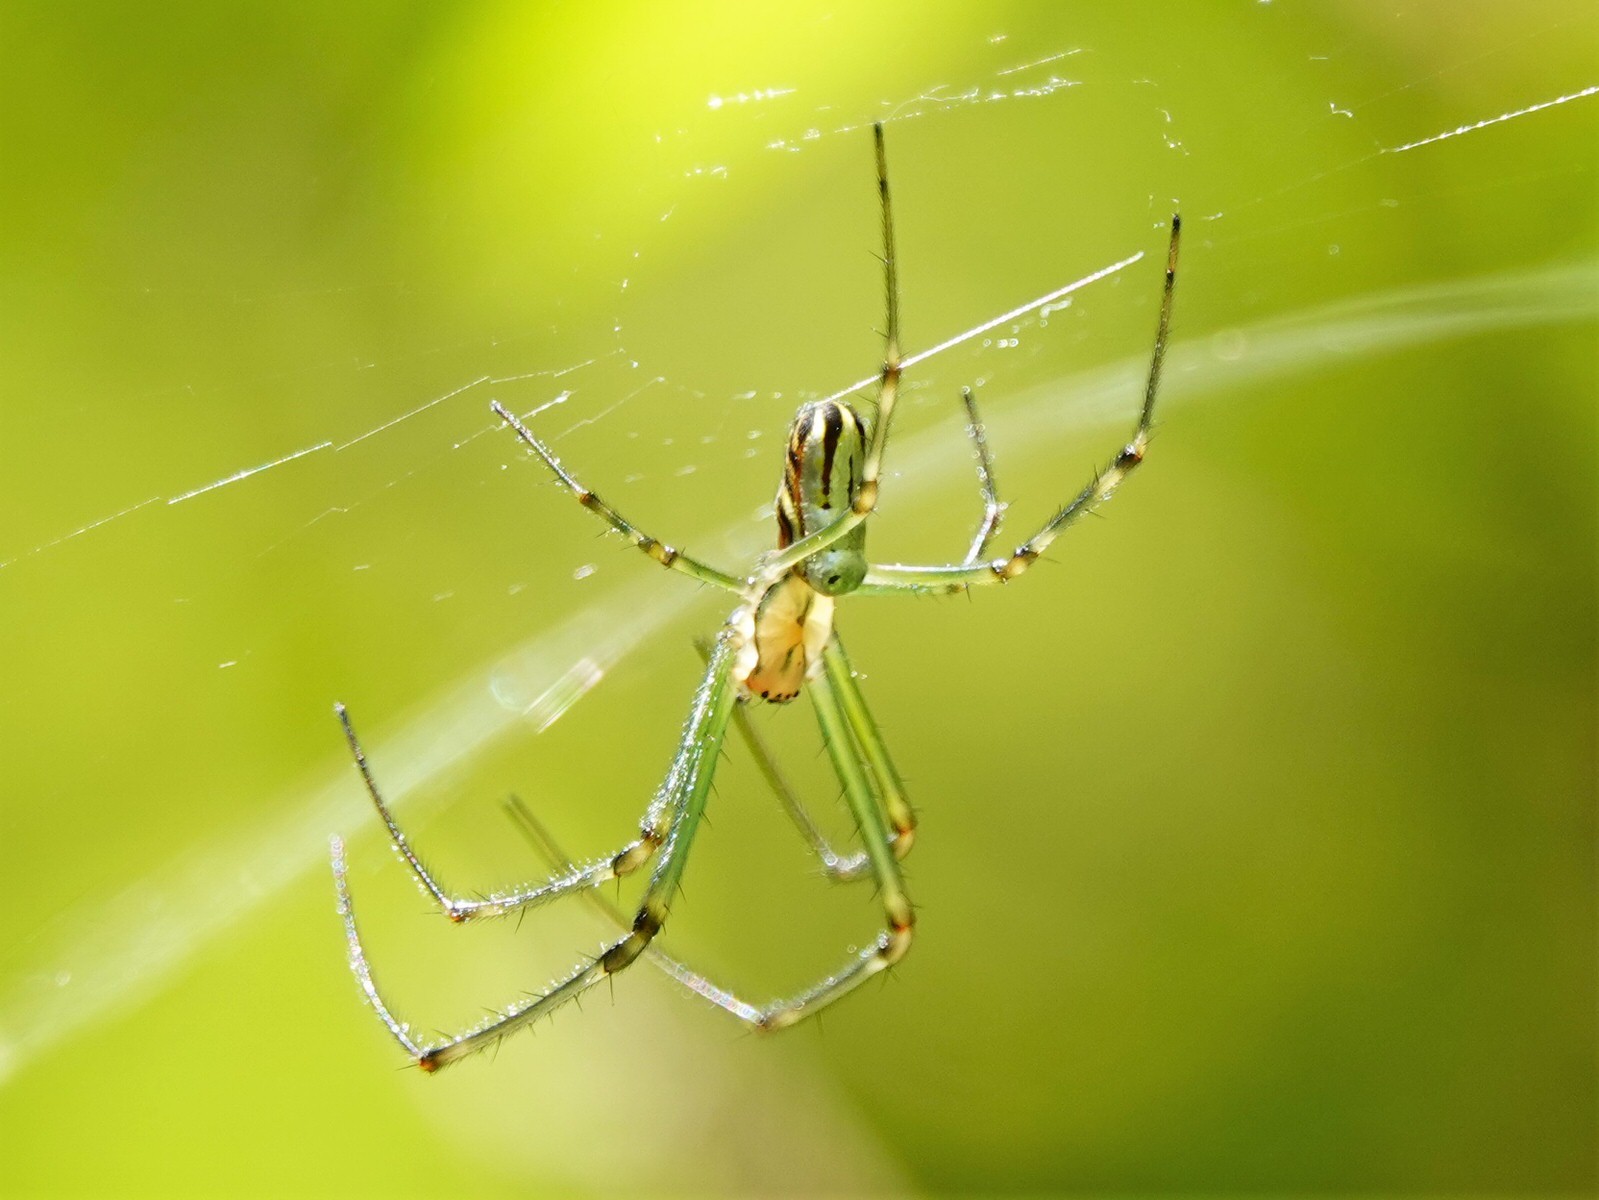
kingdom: Animalia
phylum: Arthropoda
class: Arachnida
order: Araneae
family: Tetragnathidae
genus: Leucauge
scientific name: Leucauge dromedaria
